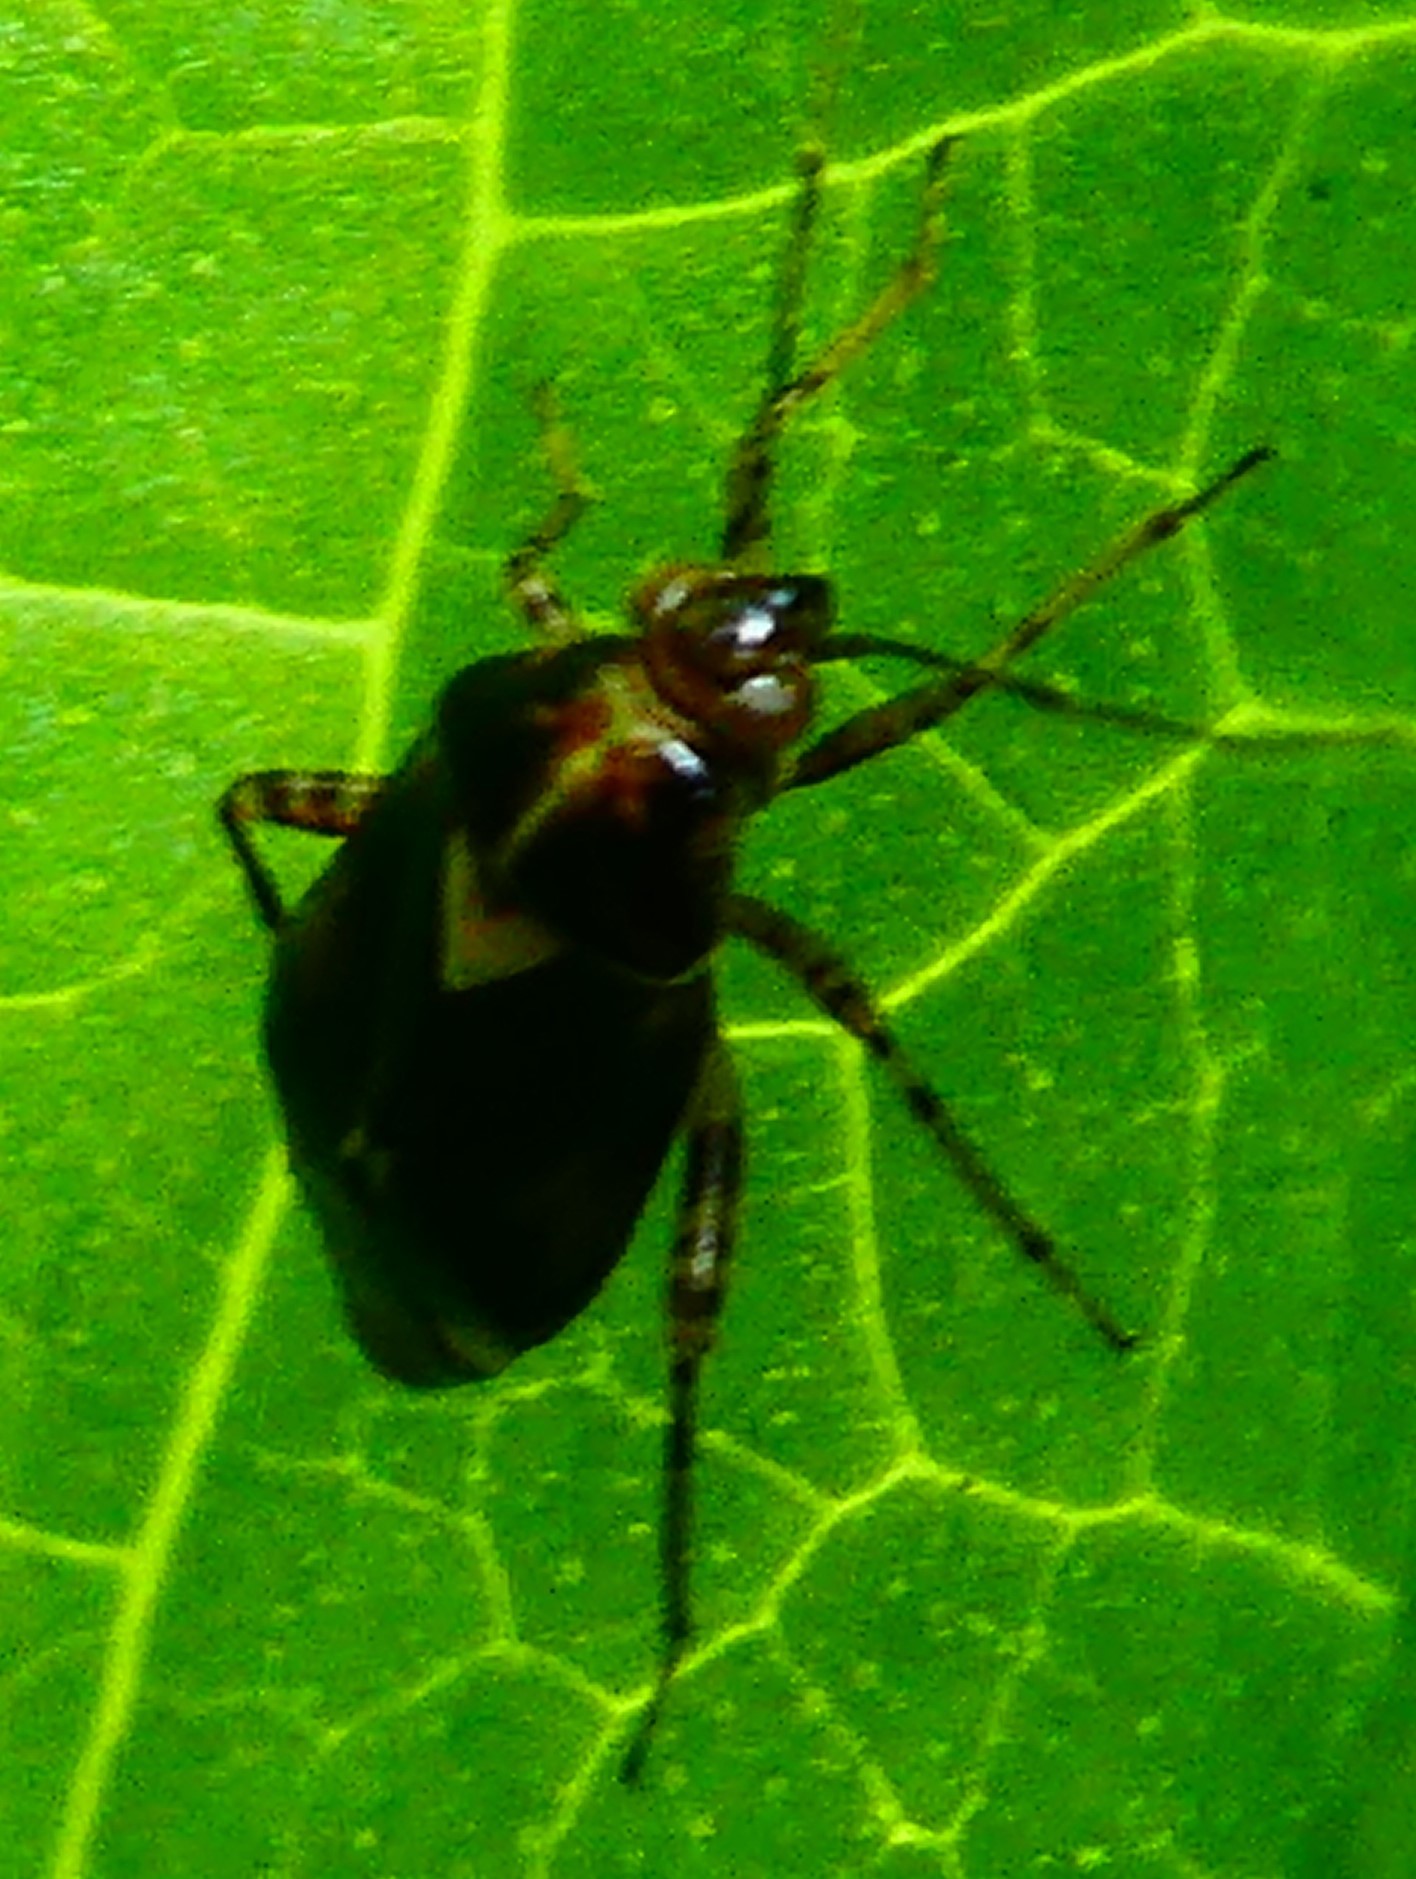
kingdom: Animalia
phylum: Arthropoda
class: Insecta
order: Hemiptera
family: Miridae
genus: Liocoris
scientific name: Liocoris tripustulatus
